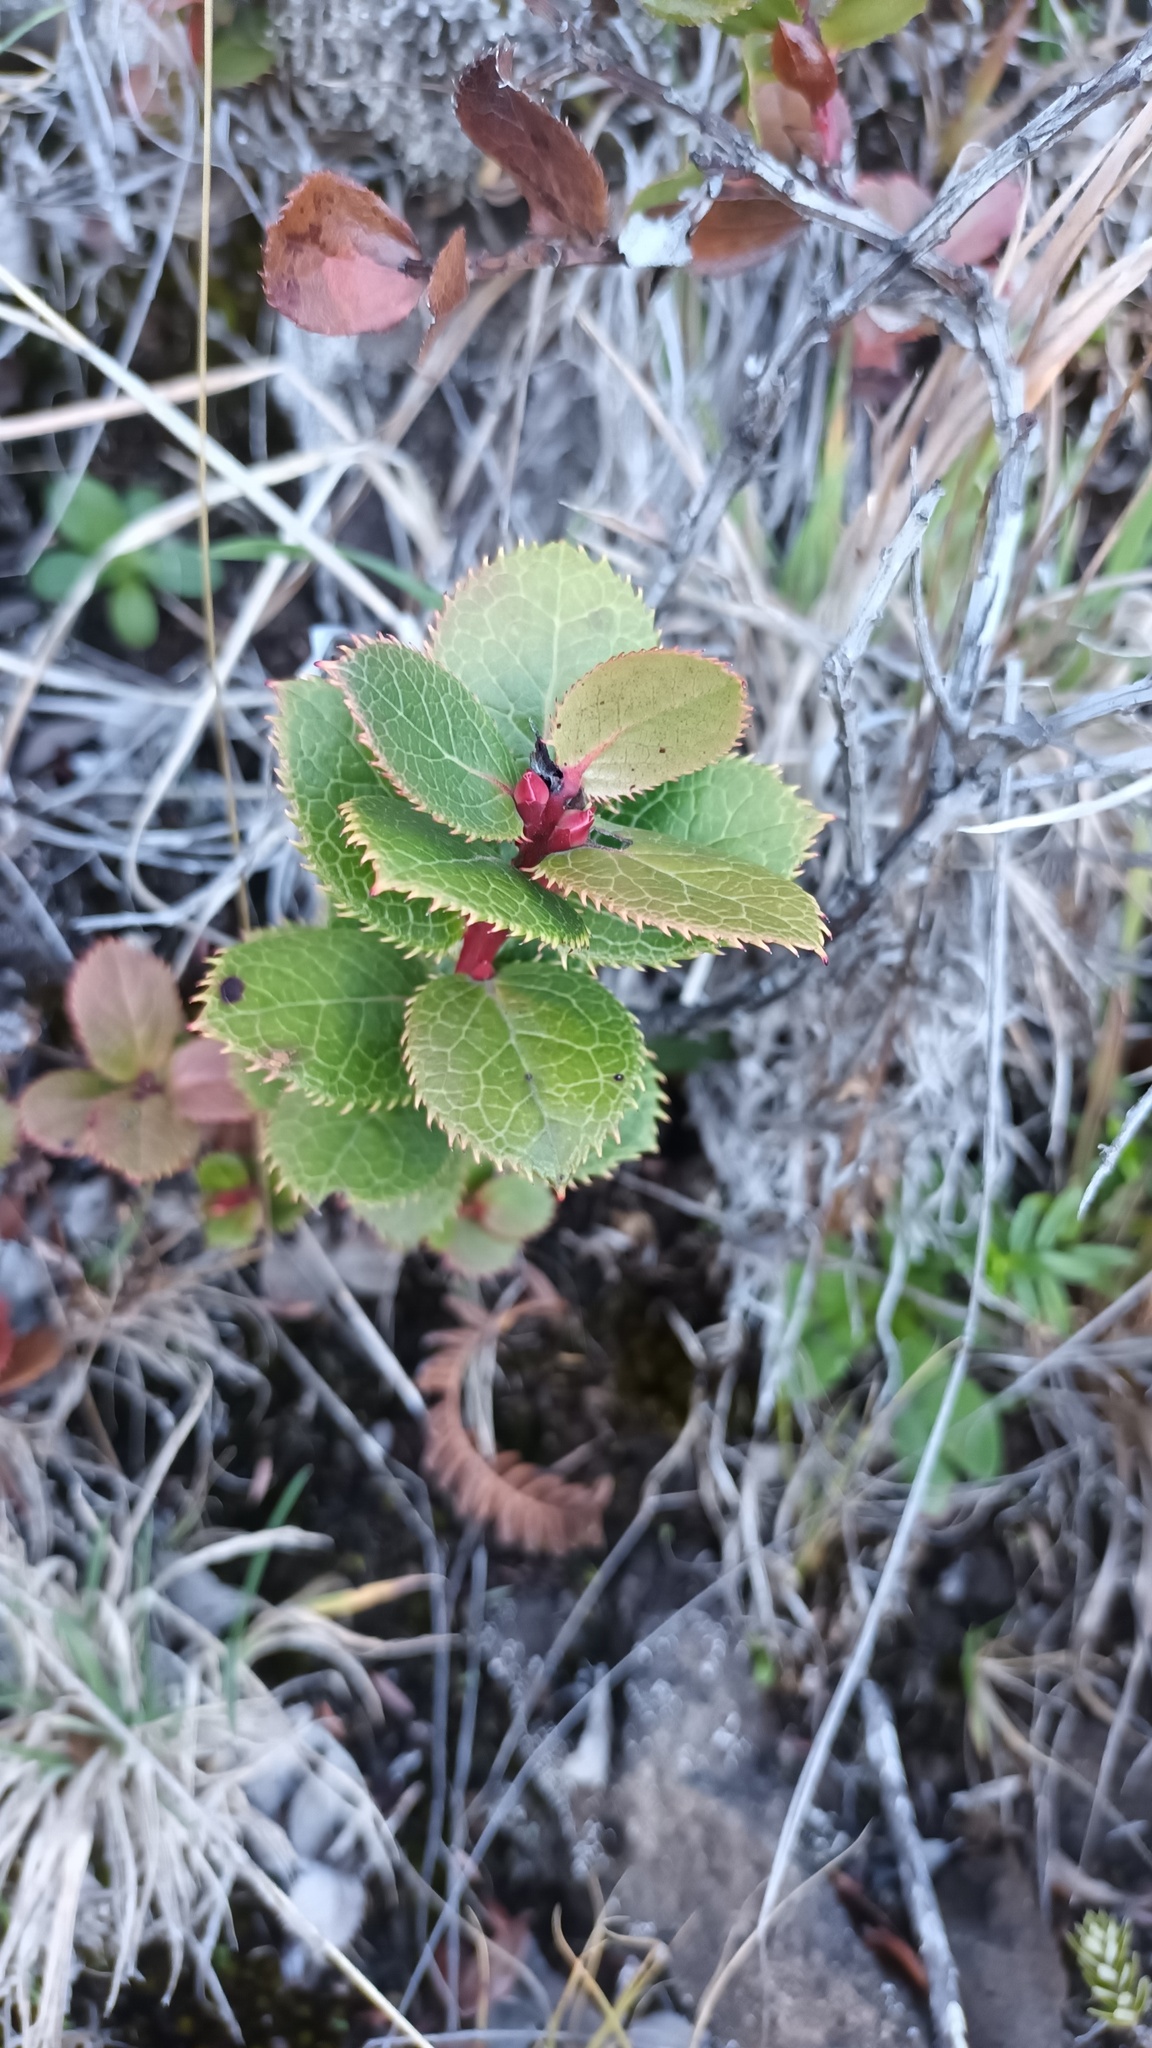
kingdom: Plantae
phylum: Tracheophyta
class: Magnoliopsida
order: Ericales
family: Ericaceae
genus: Vaccinium
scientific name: Vaccinium dentatum
